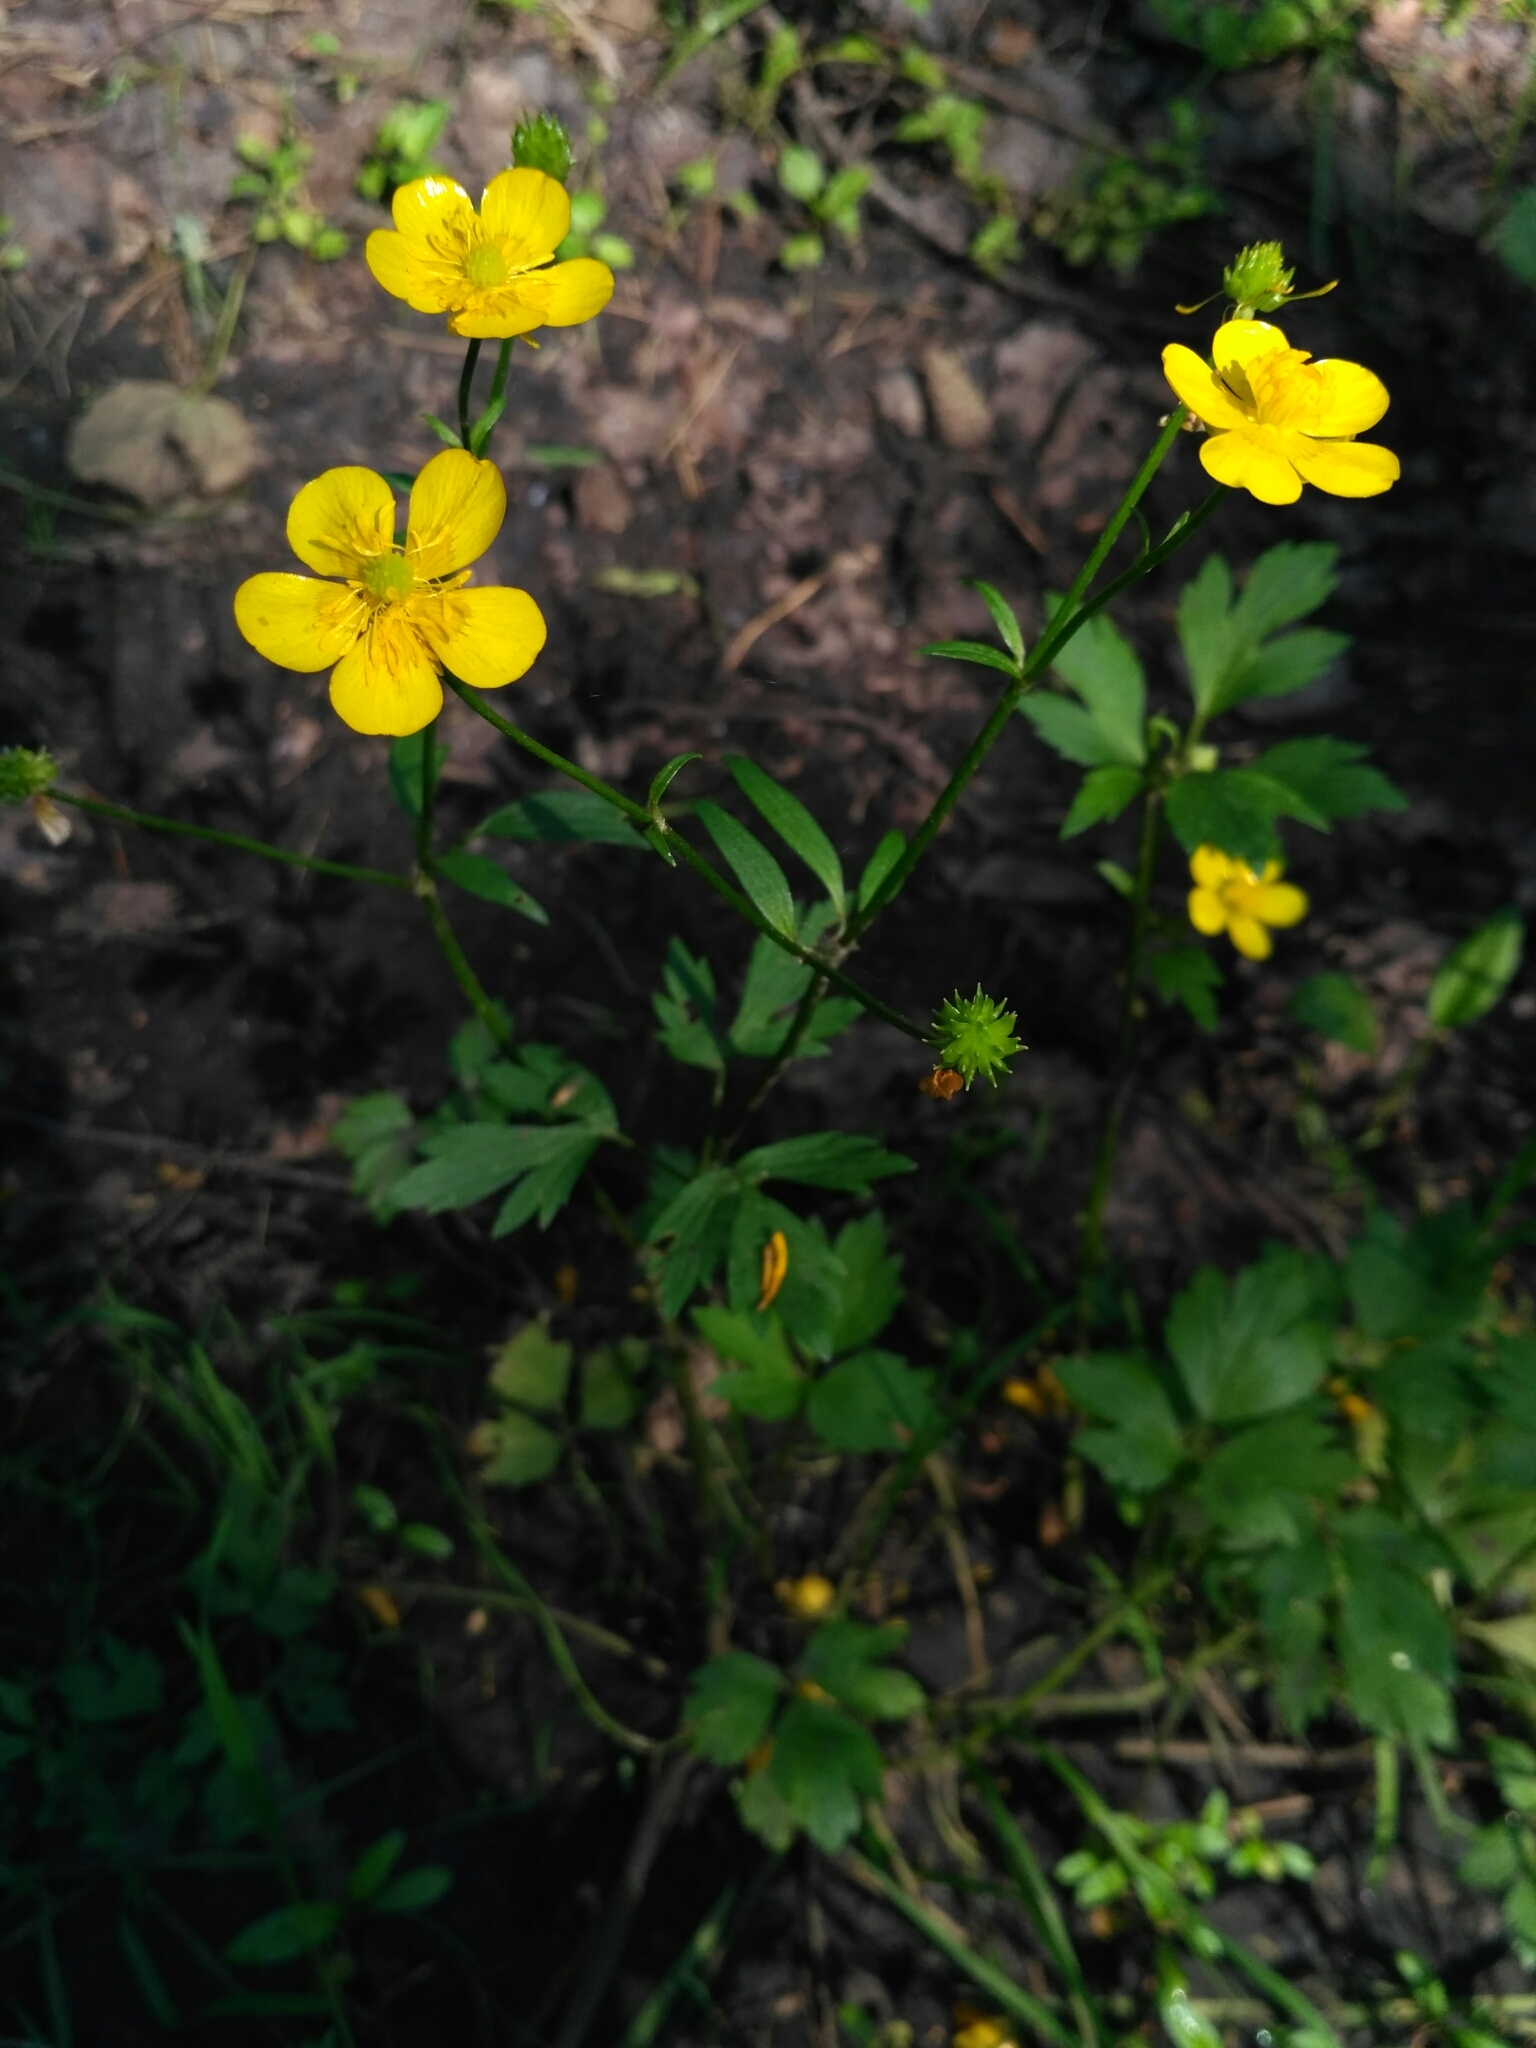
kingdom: Plantae
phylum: Tracheophyta
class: Magnoliopsida
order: Ranunculales
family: Ranunculaceae
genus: Ranunculus
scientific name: Ranunculus repens
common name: Creeping buttercup
